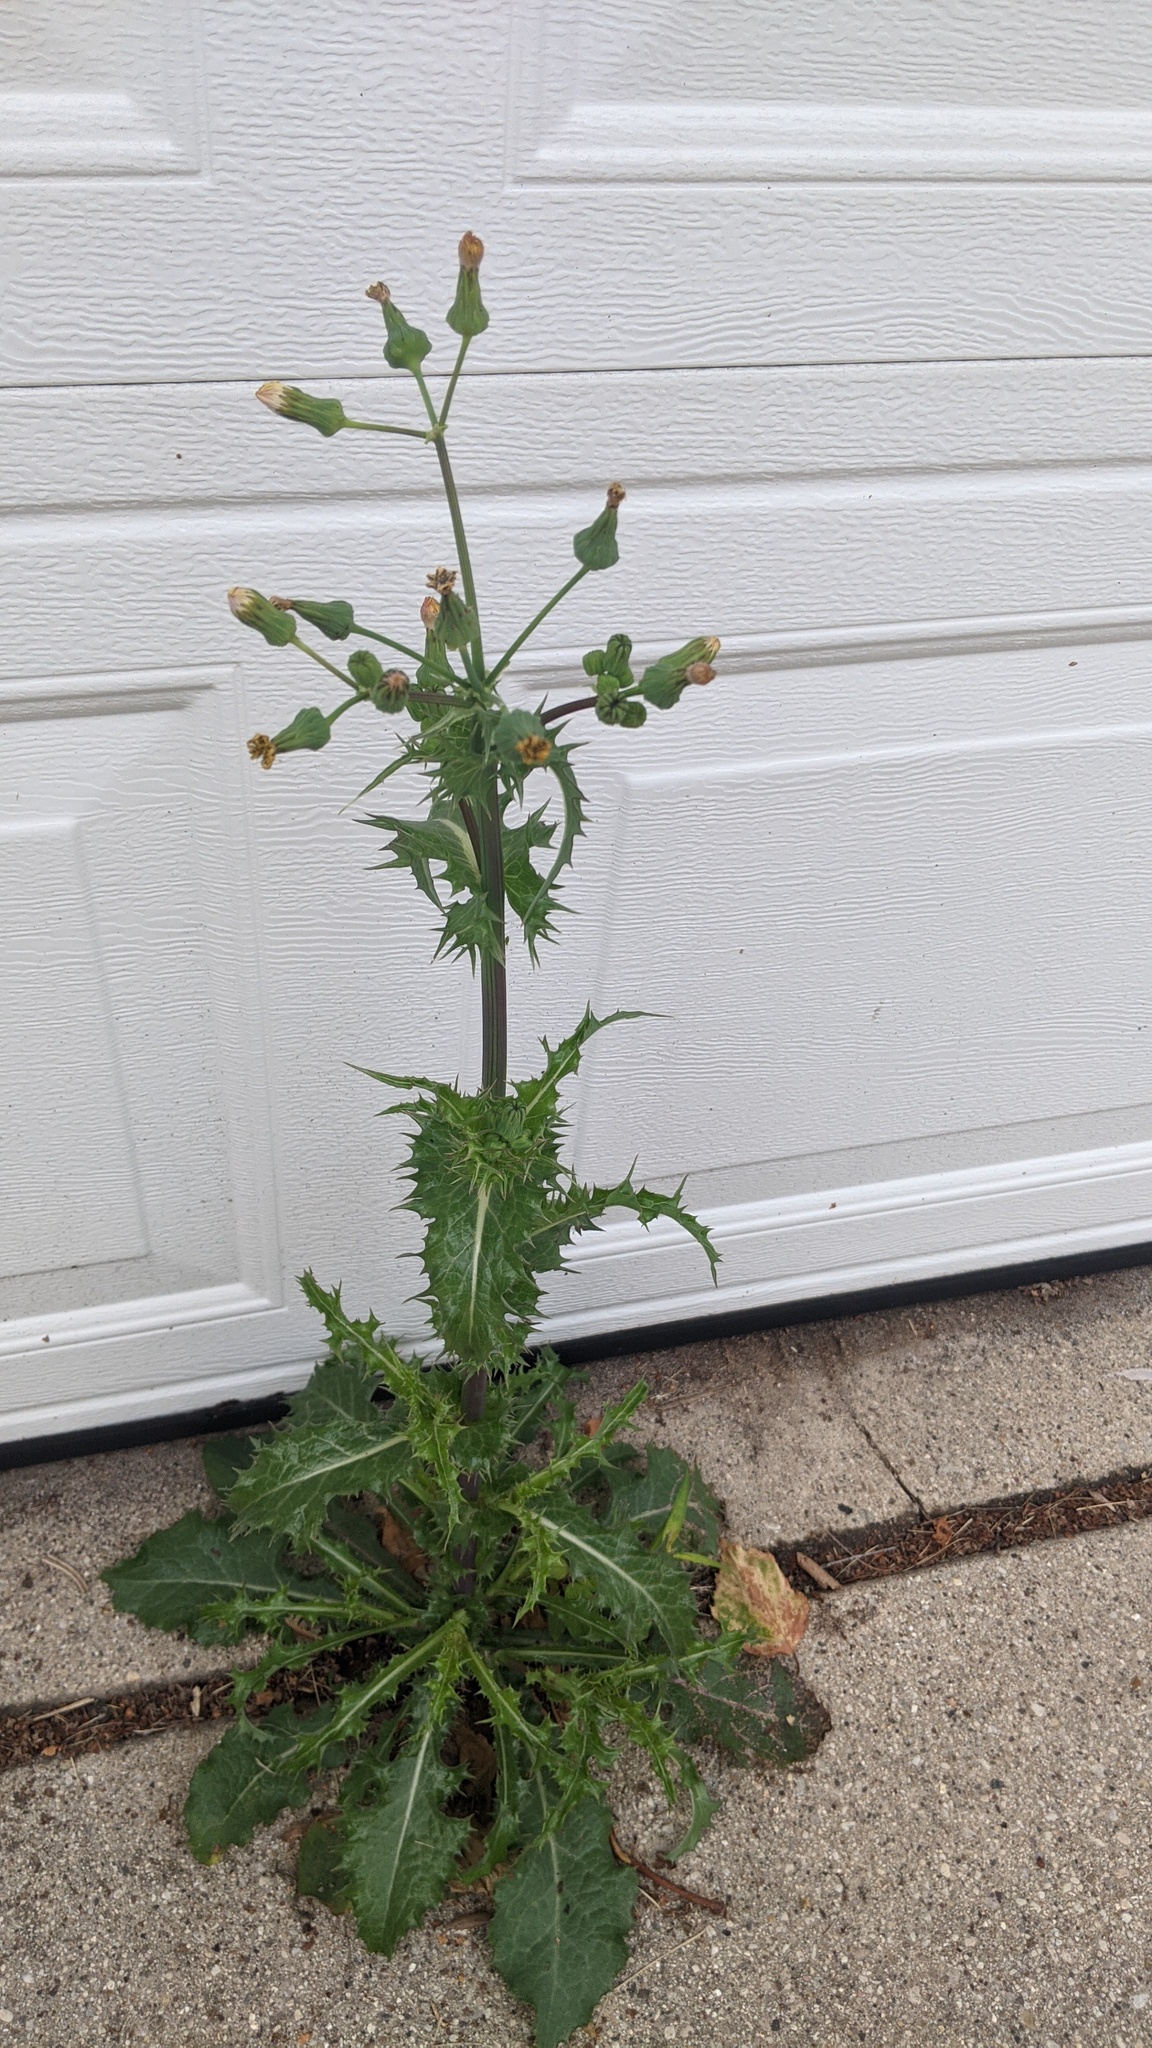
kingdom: Plantae
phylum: Tracheophyta
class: Magnoliopsida
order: Asterales
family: Asteraceae
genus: Sonchus
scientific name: Sonchus asper
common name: Prickly sow-thistle
